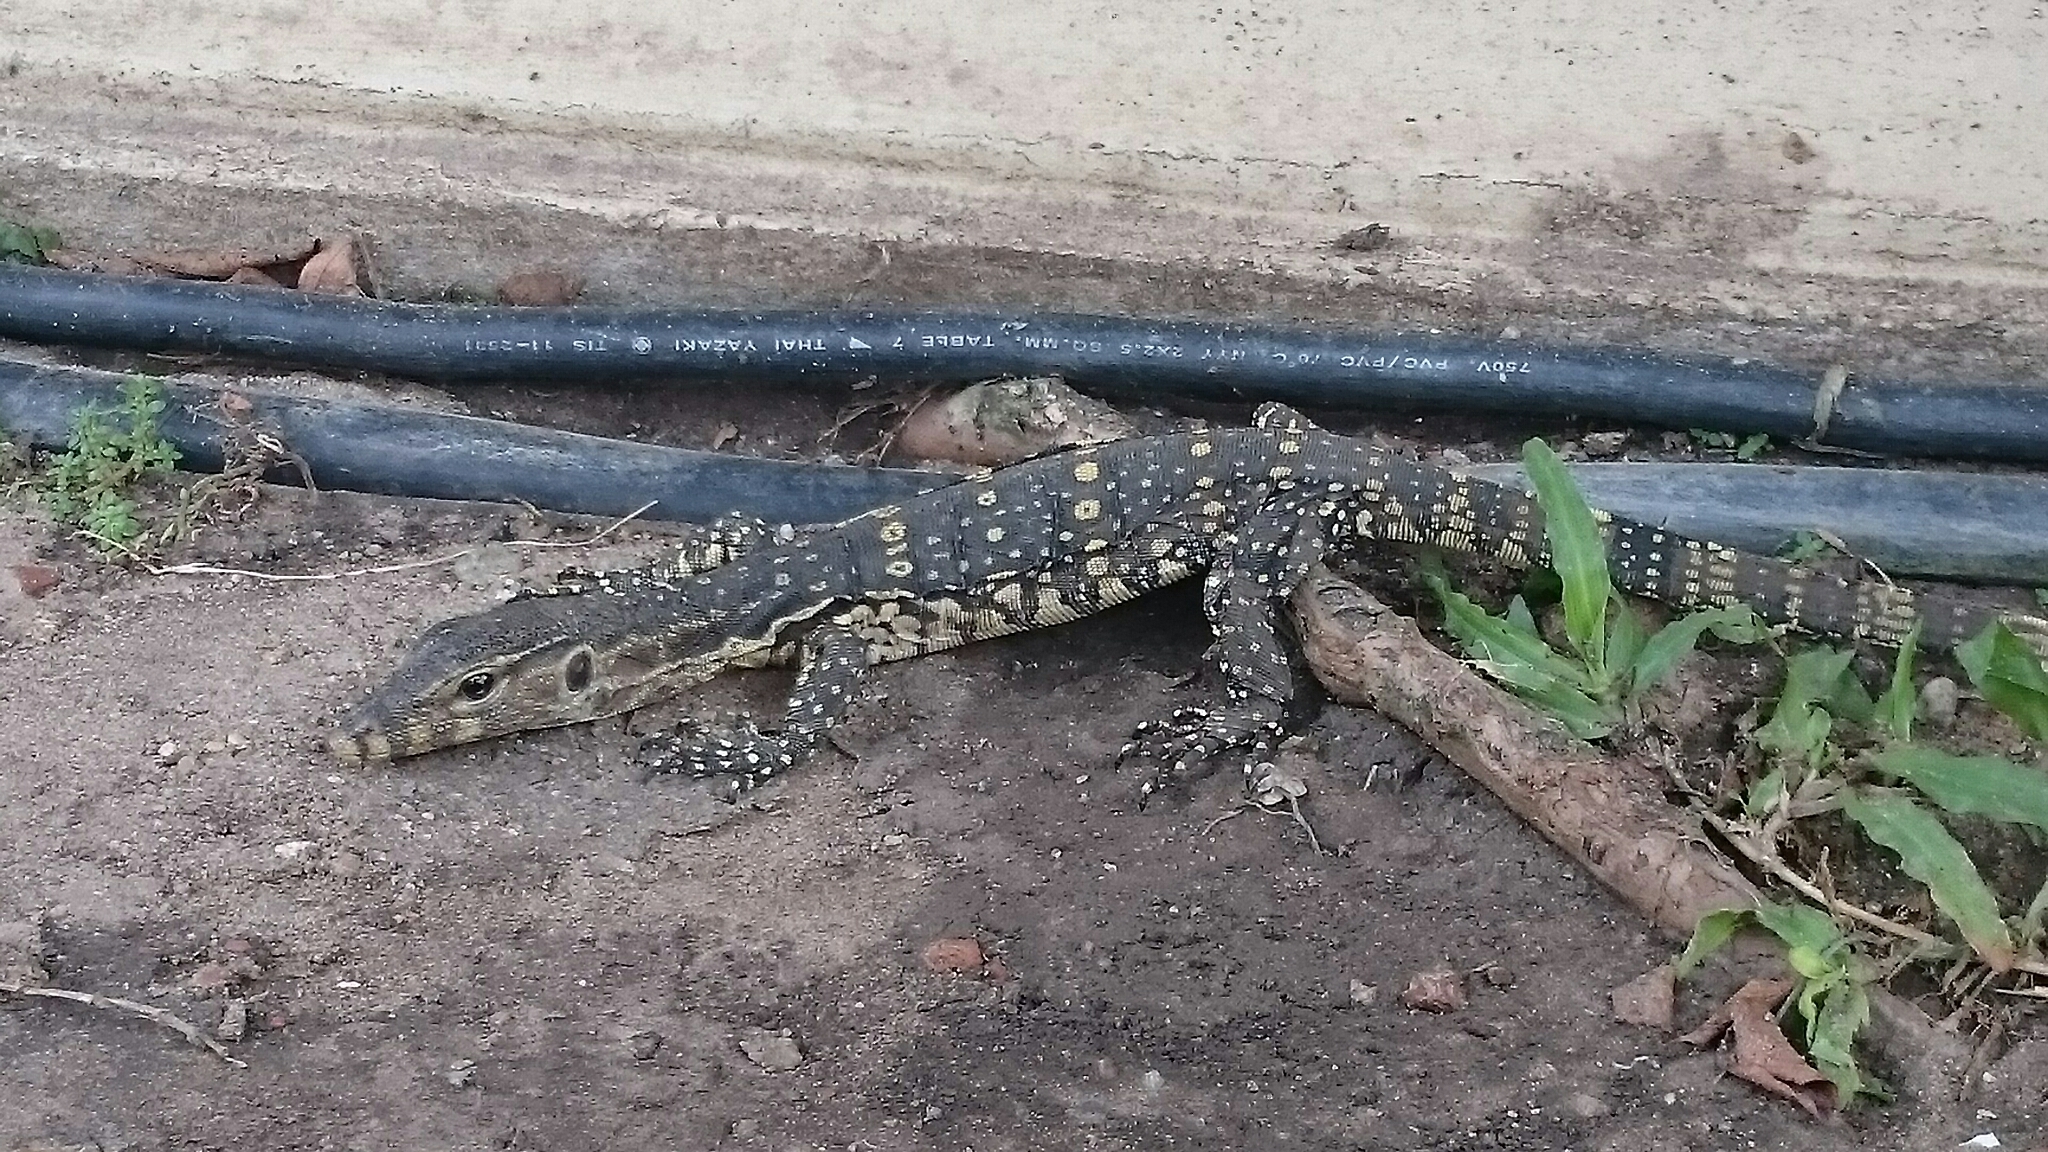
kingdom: Animalia
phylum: Chordata
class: Squamata
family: Varanidae
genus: Varanus
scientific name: Varanus salvator
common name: Common water monitor
